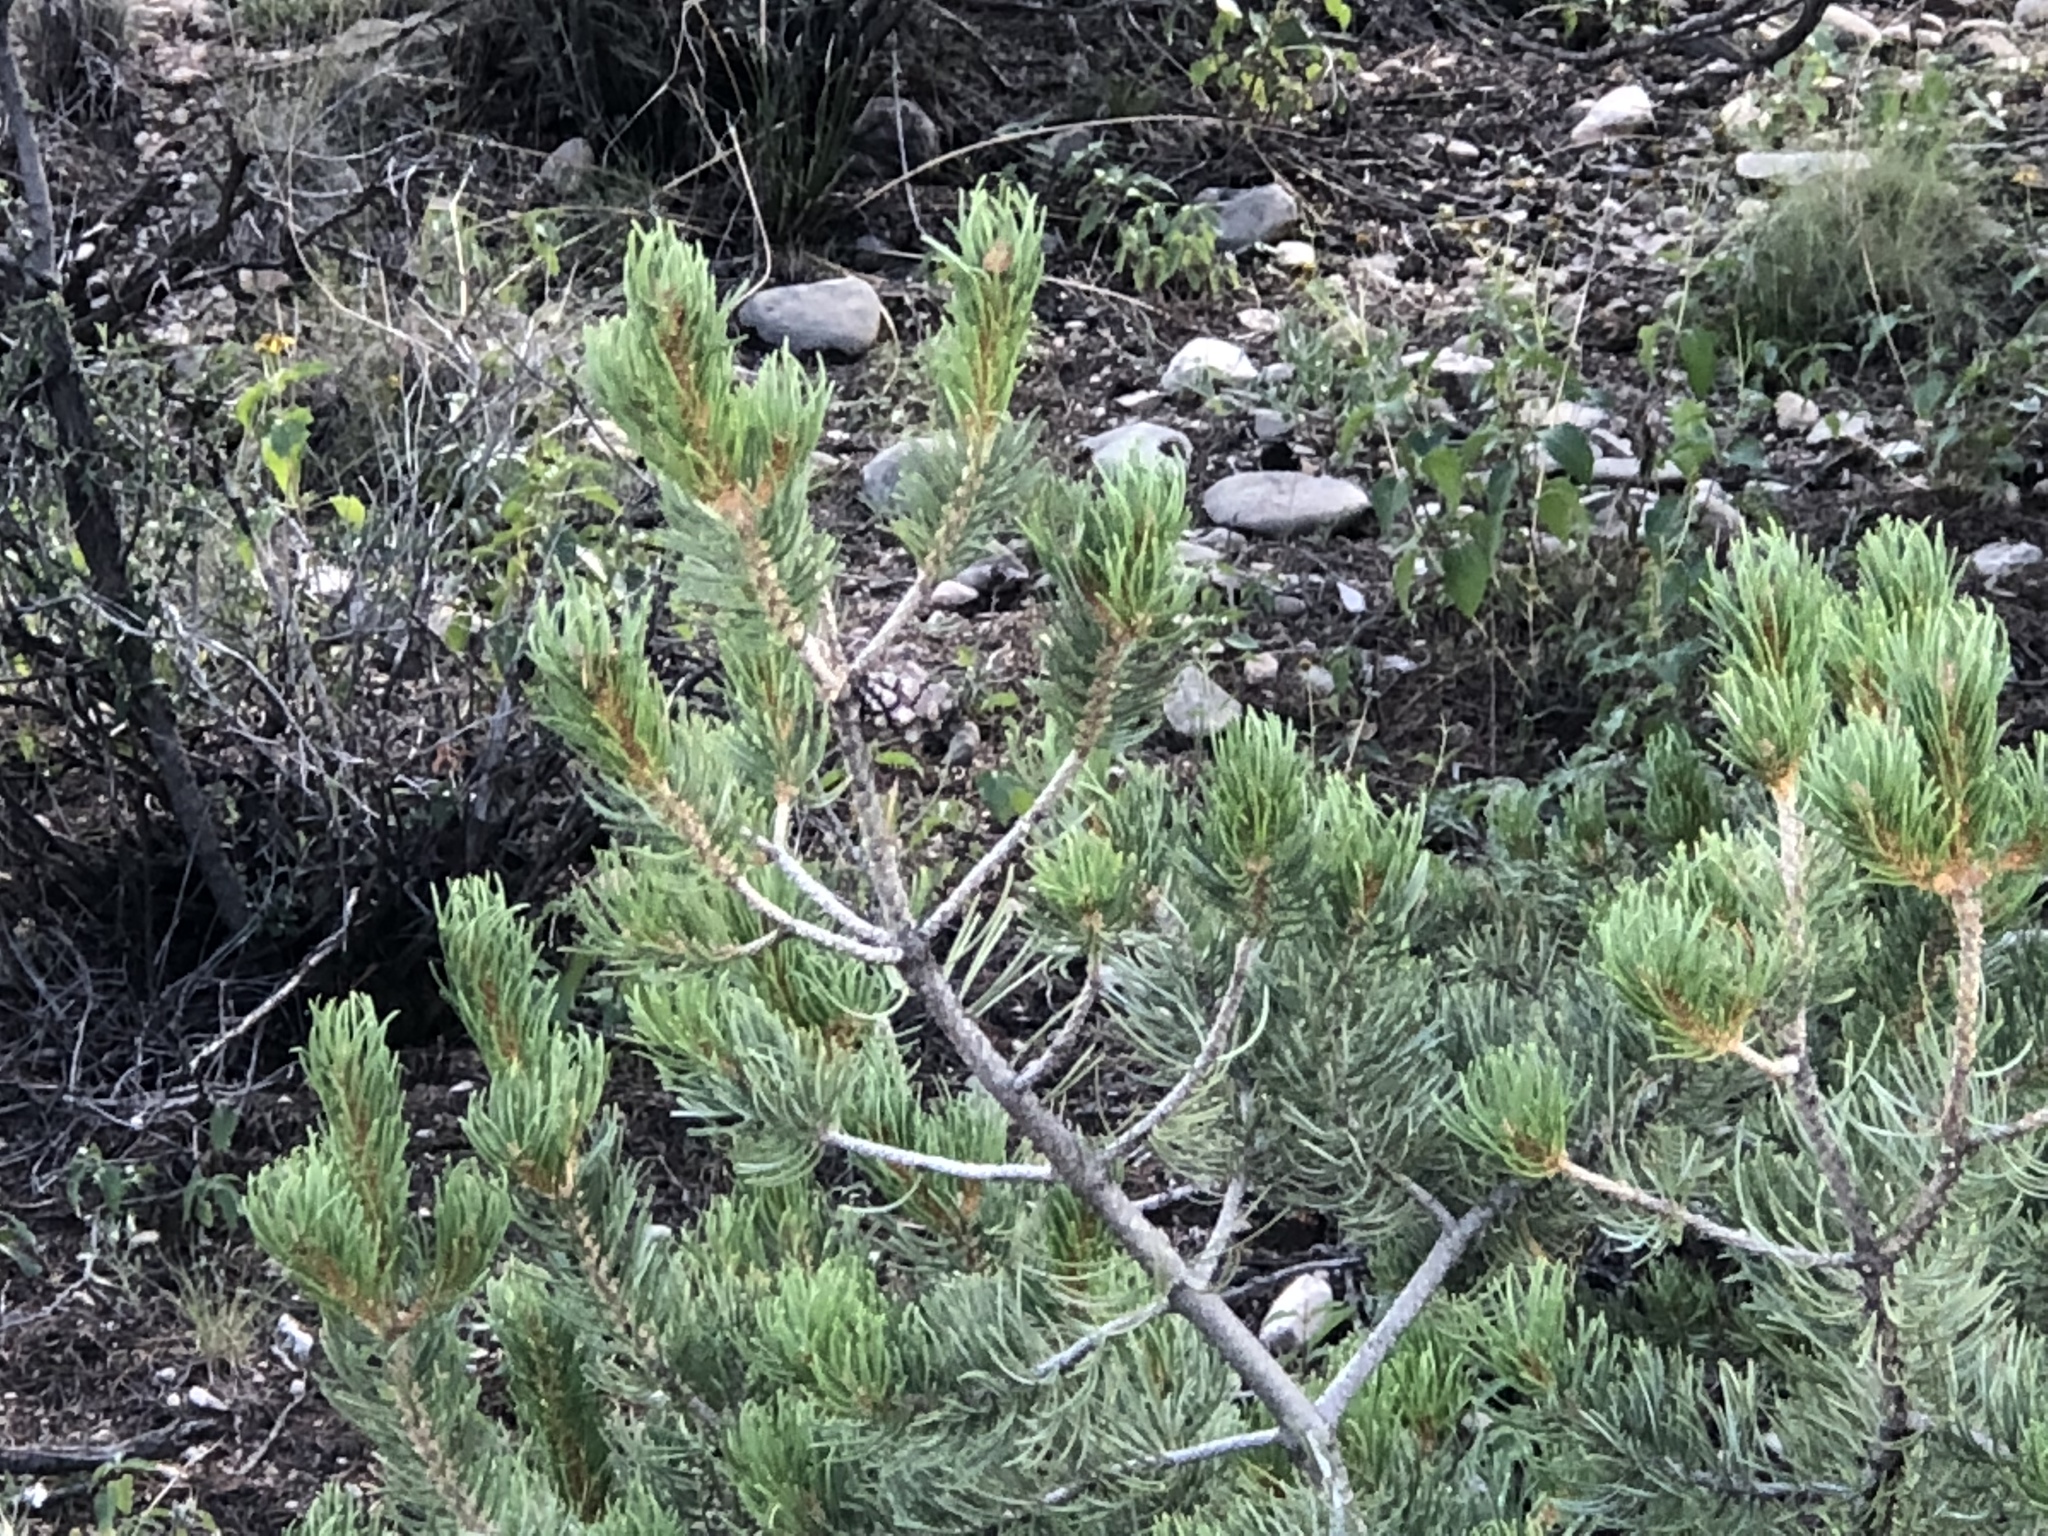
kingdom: Plantae
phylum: Tracheophyta
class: Pinopsida
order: Pinales
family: Pinaceae
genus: Pinus
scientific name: Pinus edulis
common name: Colorado pinyon
